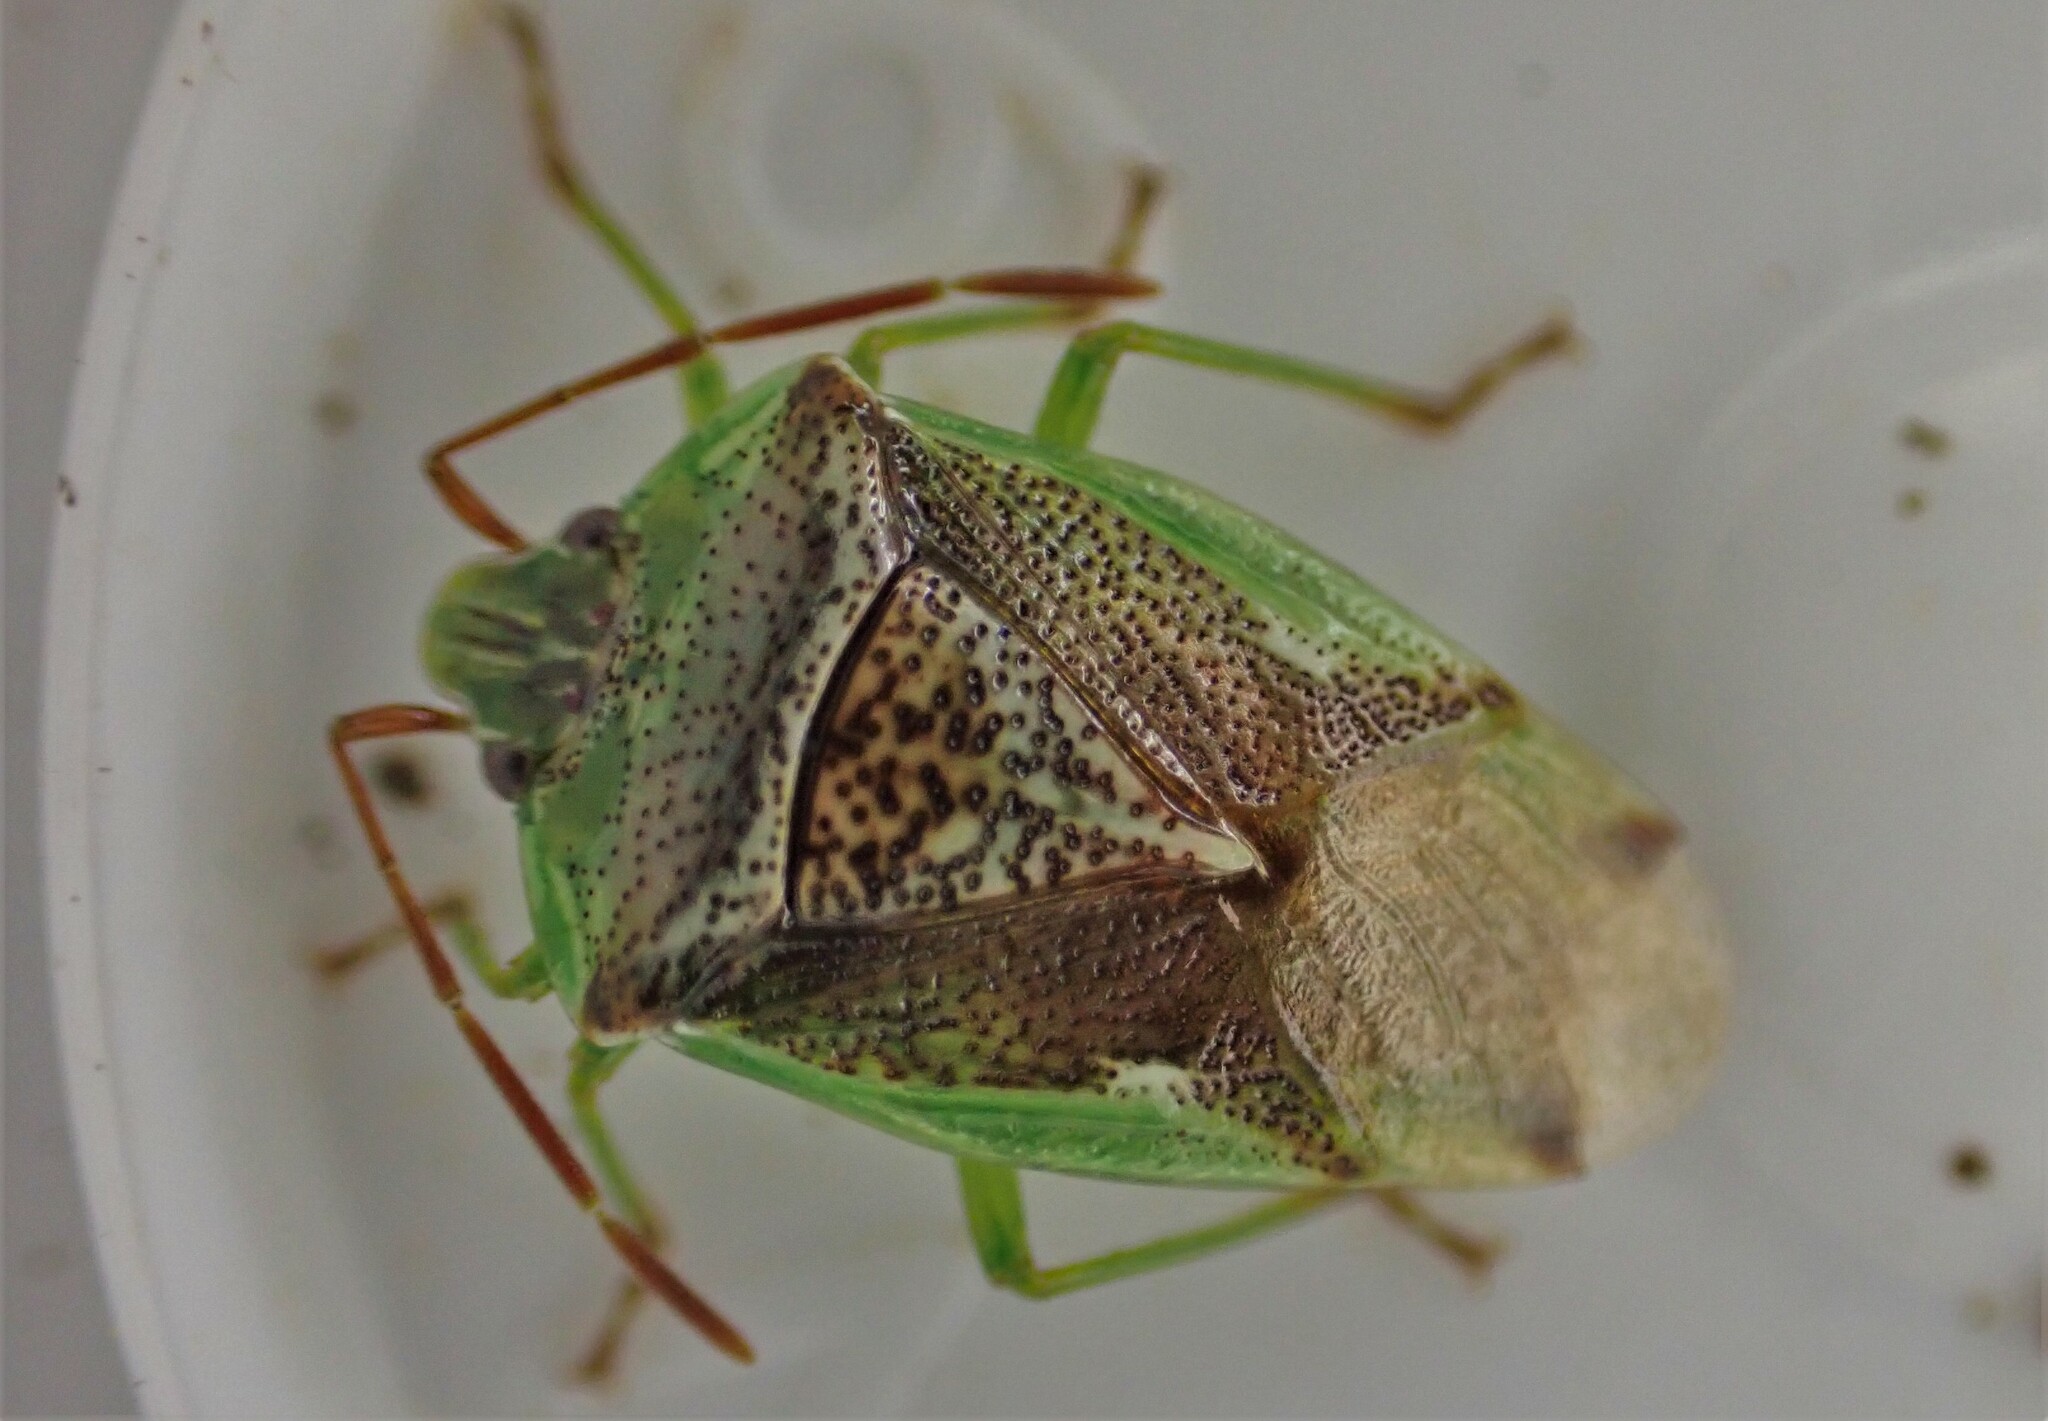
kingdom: Animalia
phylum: Arthropoda
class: Insecta
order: Hemiptera
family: Acanthosomatidae
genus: Oncacontias
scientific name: Oncacontias vittatus
